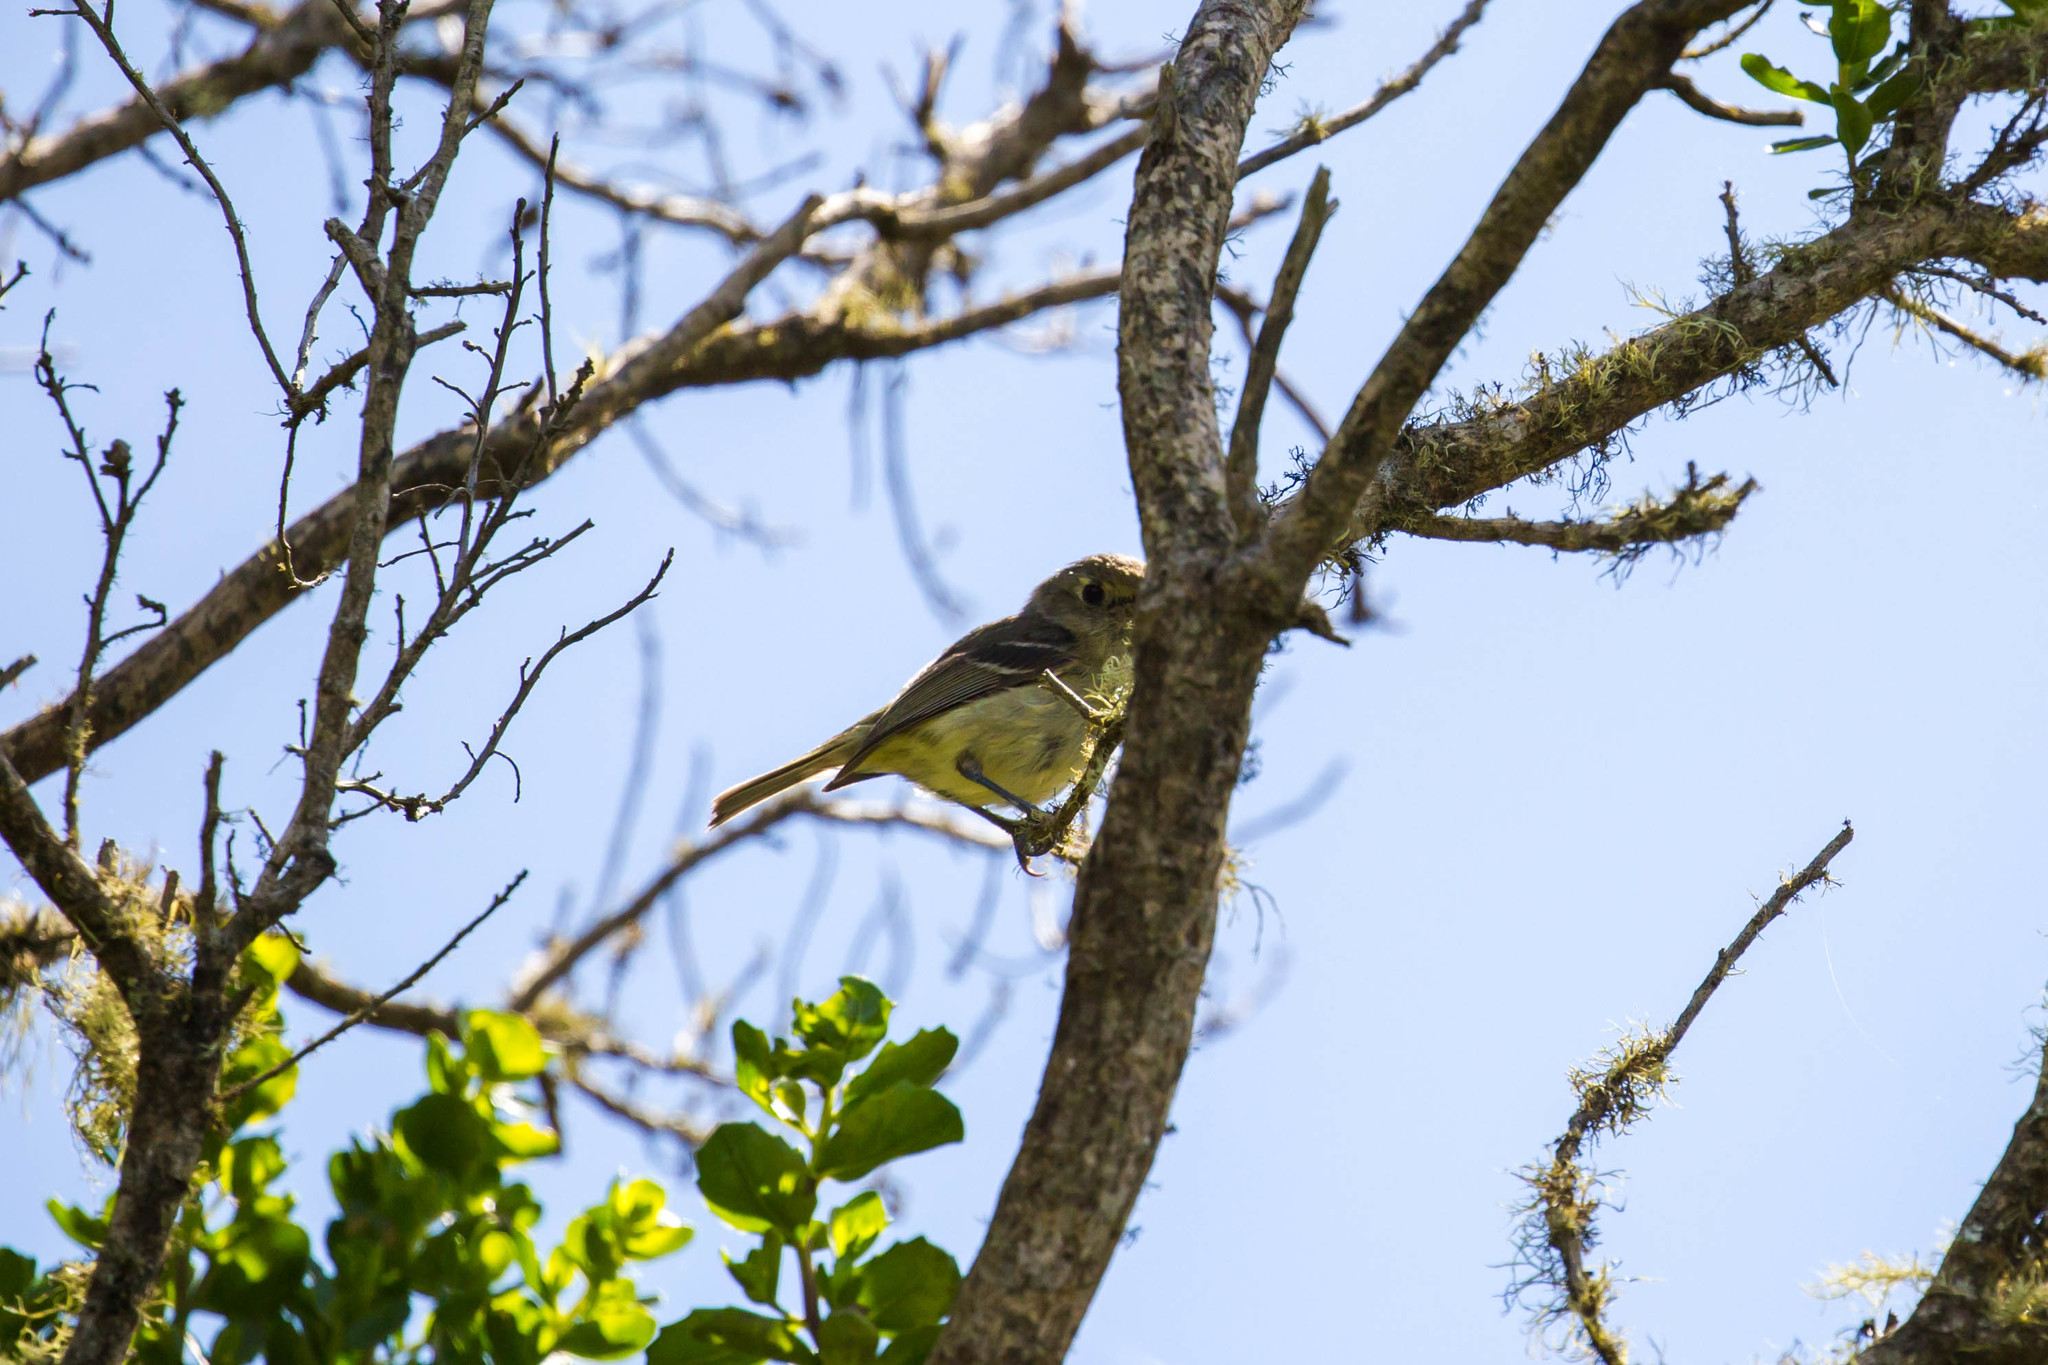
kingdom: Animalia
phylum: Chordata
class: Aves
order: Passeriformes
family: Vireonidae
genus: Vireo
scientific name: Vireo huttoni
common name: Hutton's vireo
